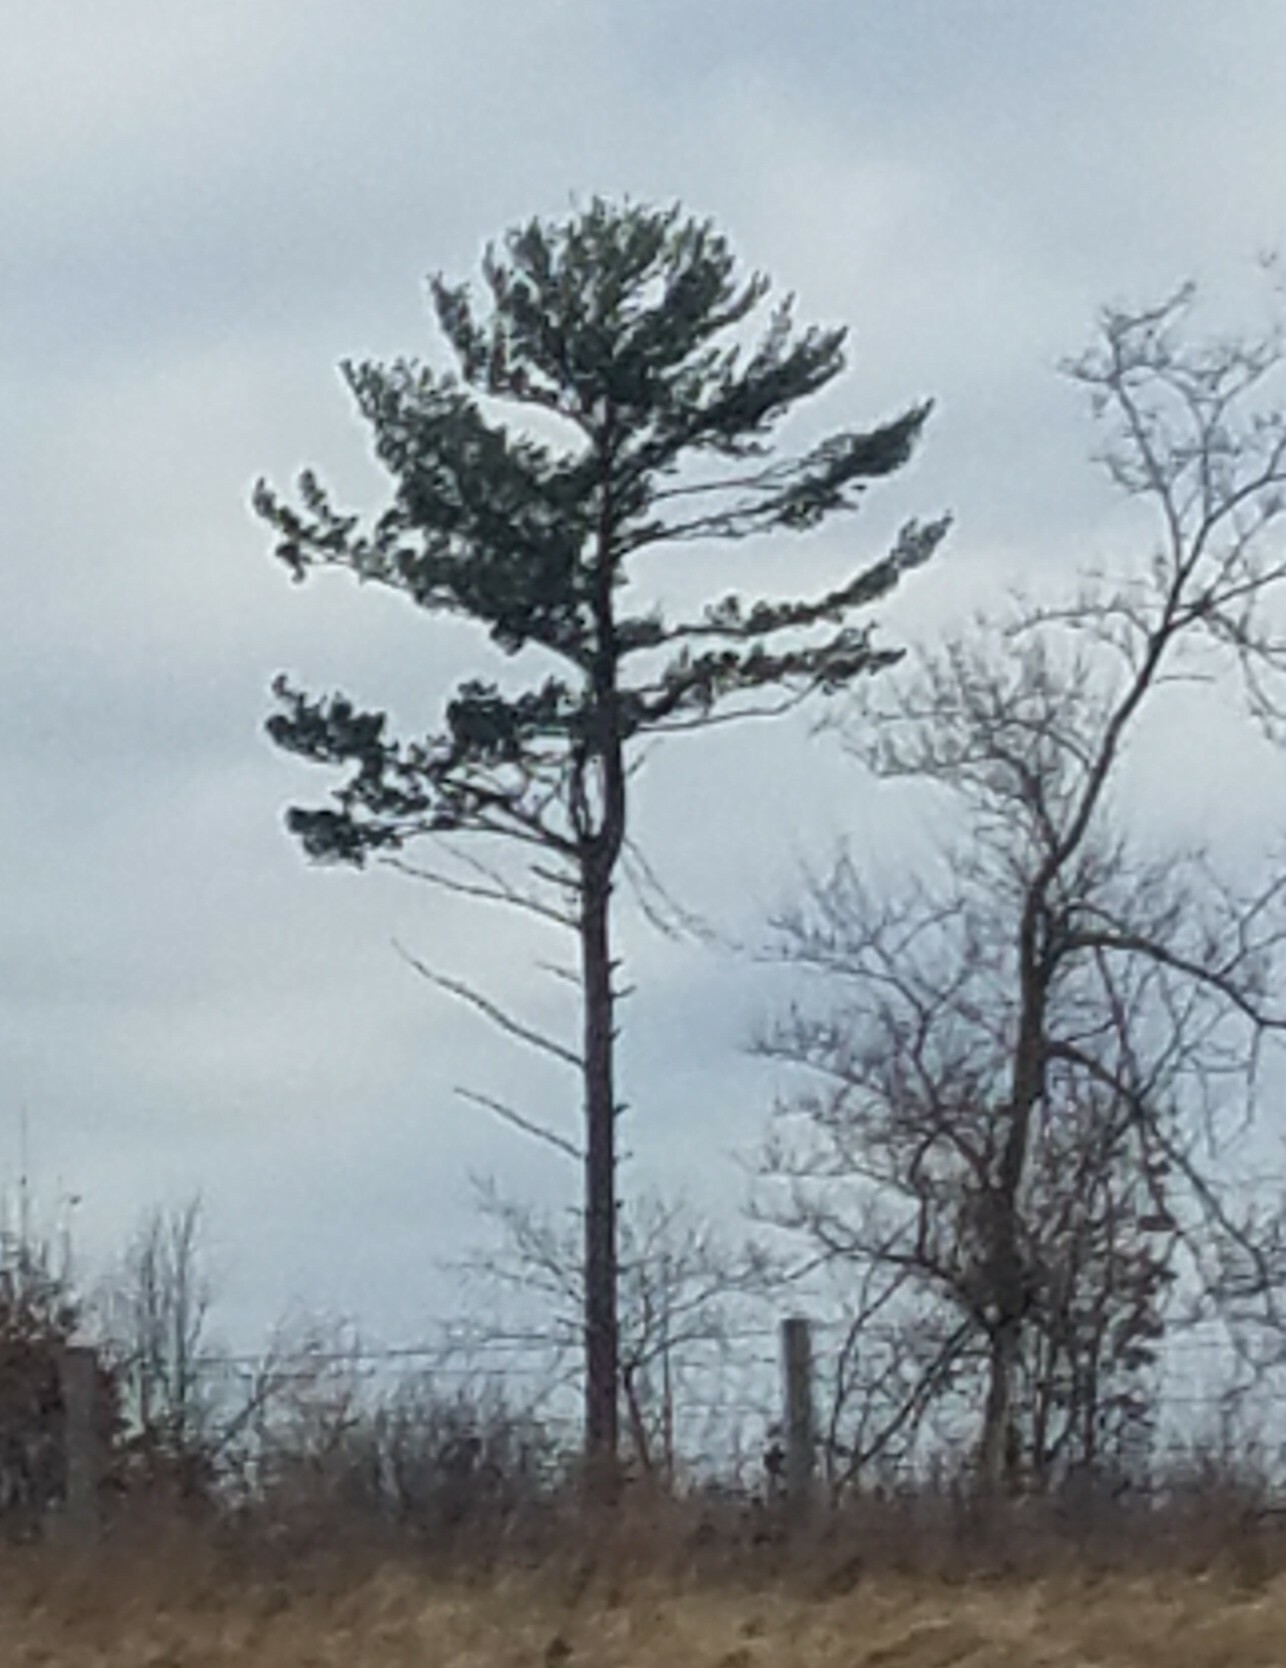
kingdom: Plantae
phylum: Tracheophyta
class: Pinopsida
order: Pinales
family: Pinaceae
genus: Pinus
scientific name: Pinus strobus
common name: Weymouth pine
